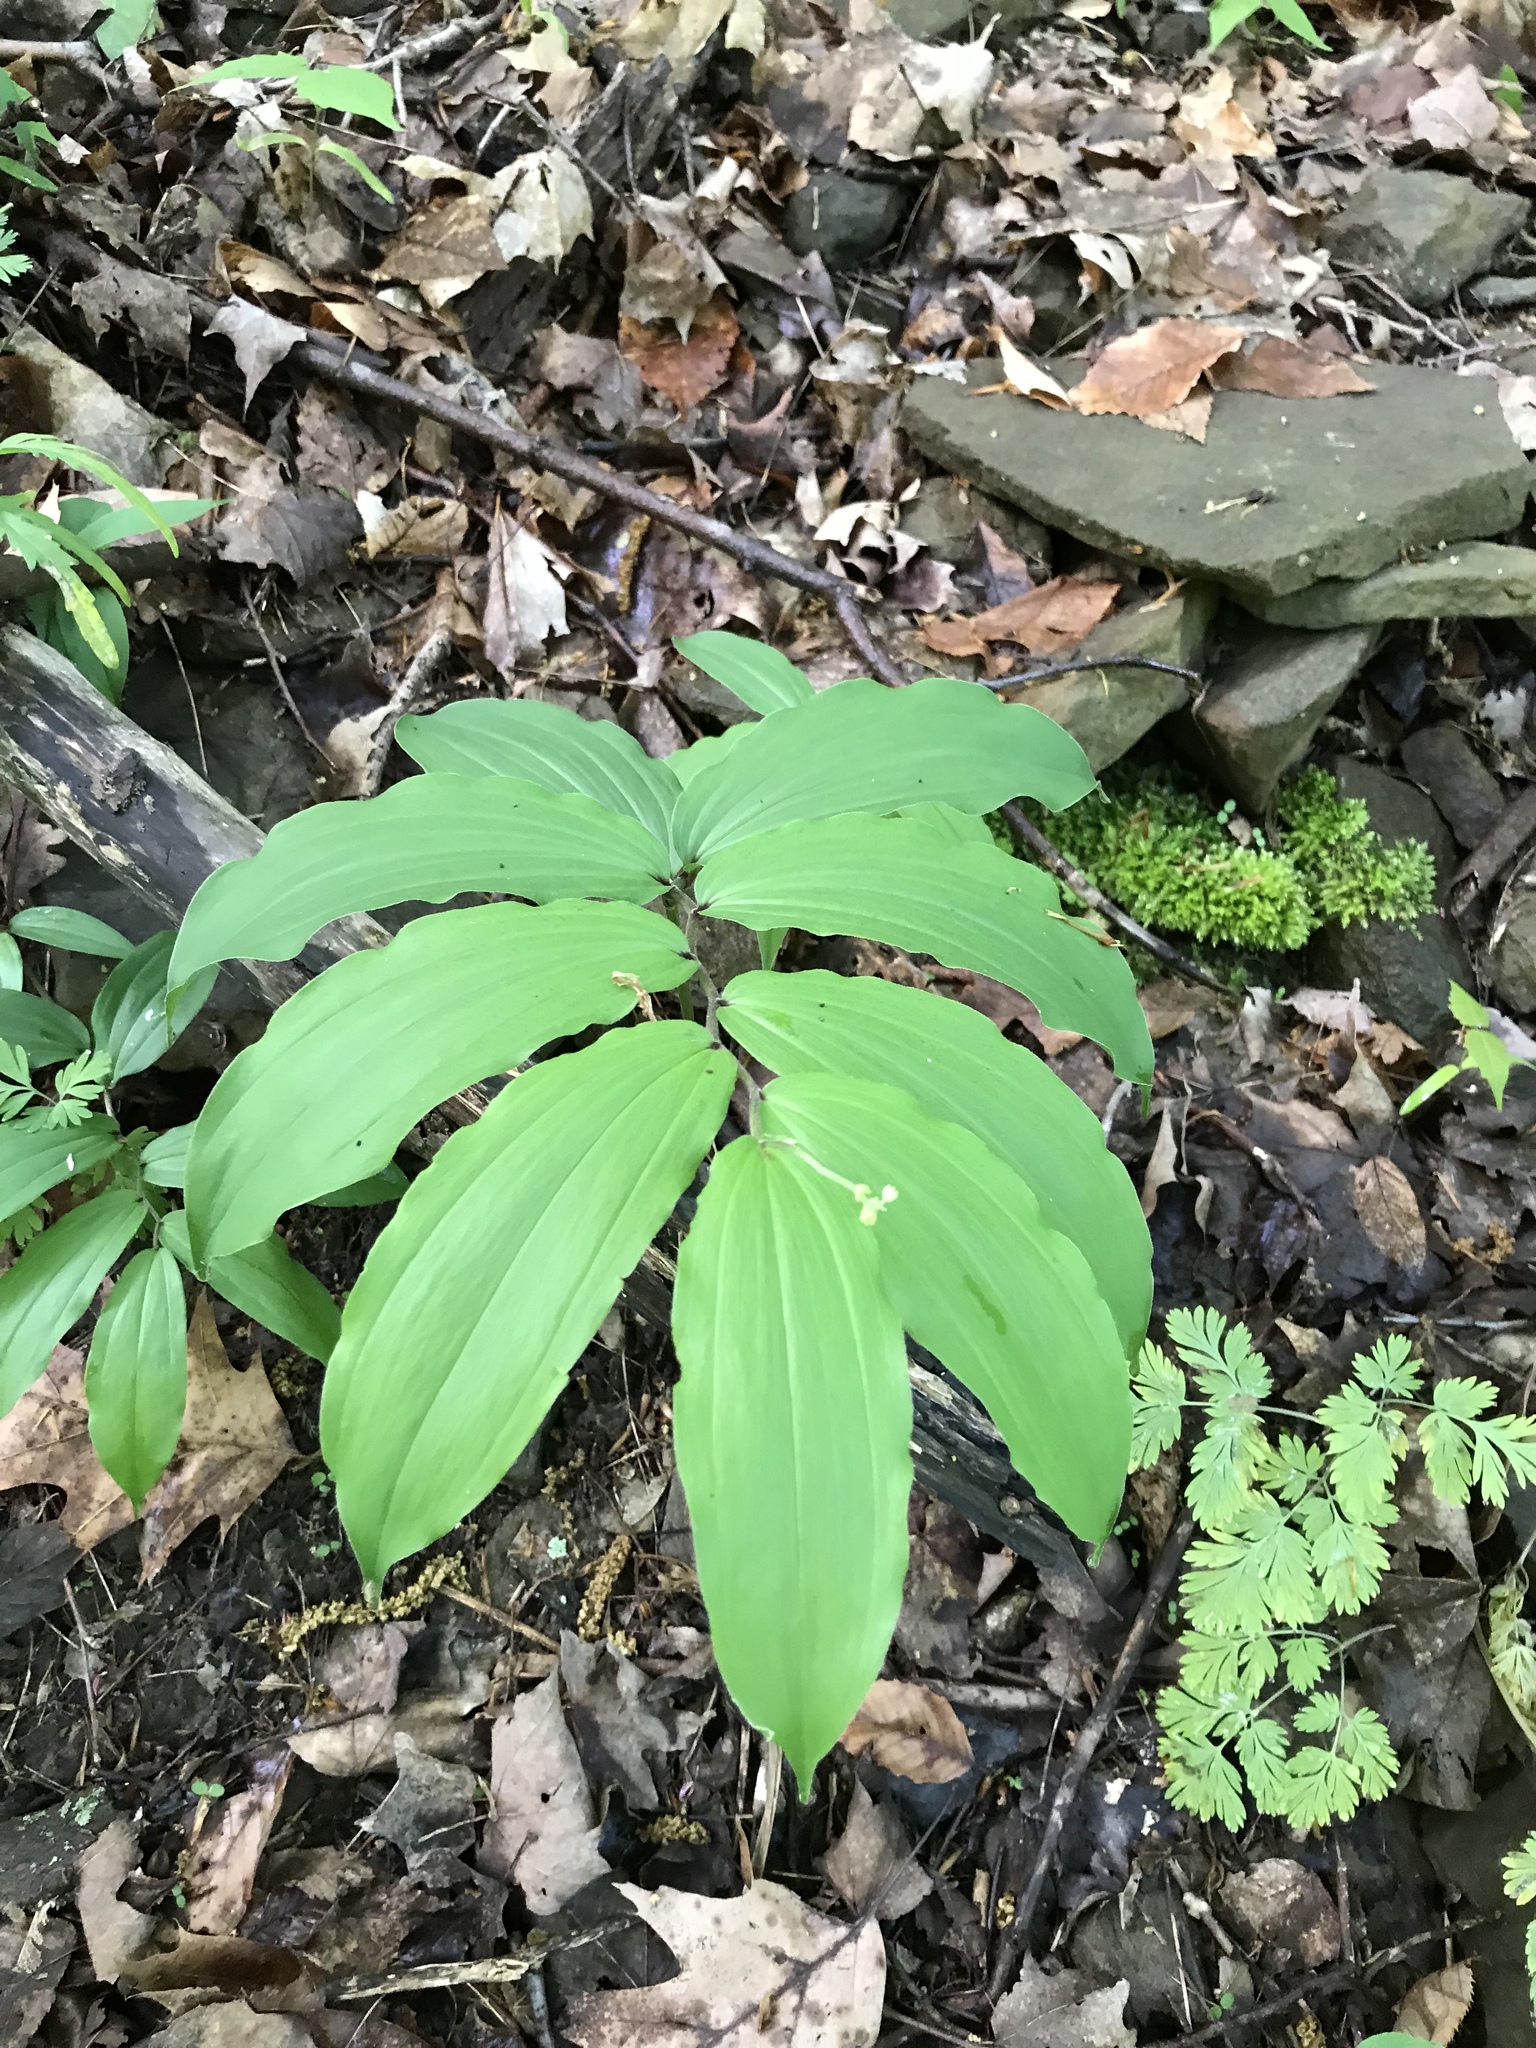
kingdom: Plantae
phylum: Tracheophyta
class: Liliopsida
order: Asparagales
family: Asparagaceae
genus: Maianthemum
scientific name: Maianthemum racemosum
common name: False spikenard
